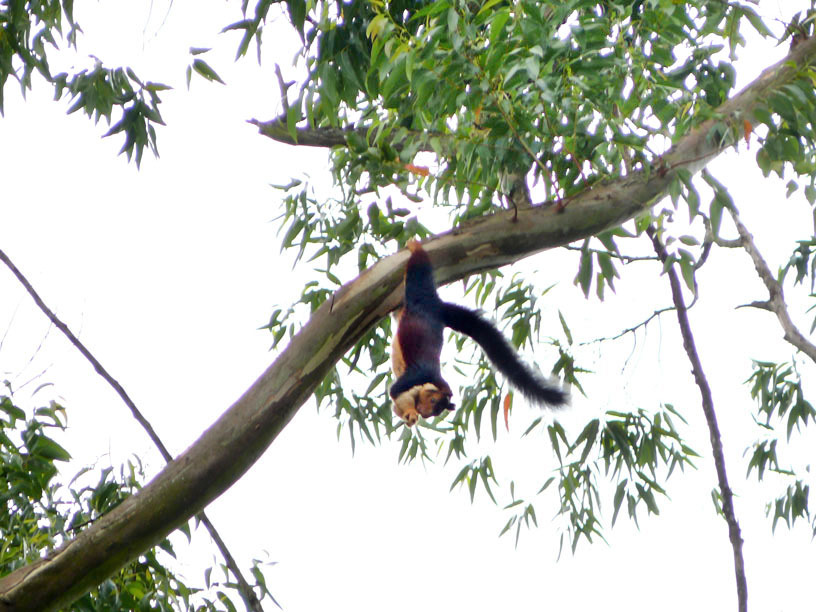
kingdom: Animalia
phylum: Chordata
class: Mammalia
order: Rodentia
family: Sciuridae
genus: Ratufa
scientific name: Ratufa indica
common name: Indian giant squirrel
